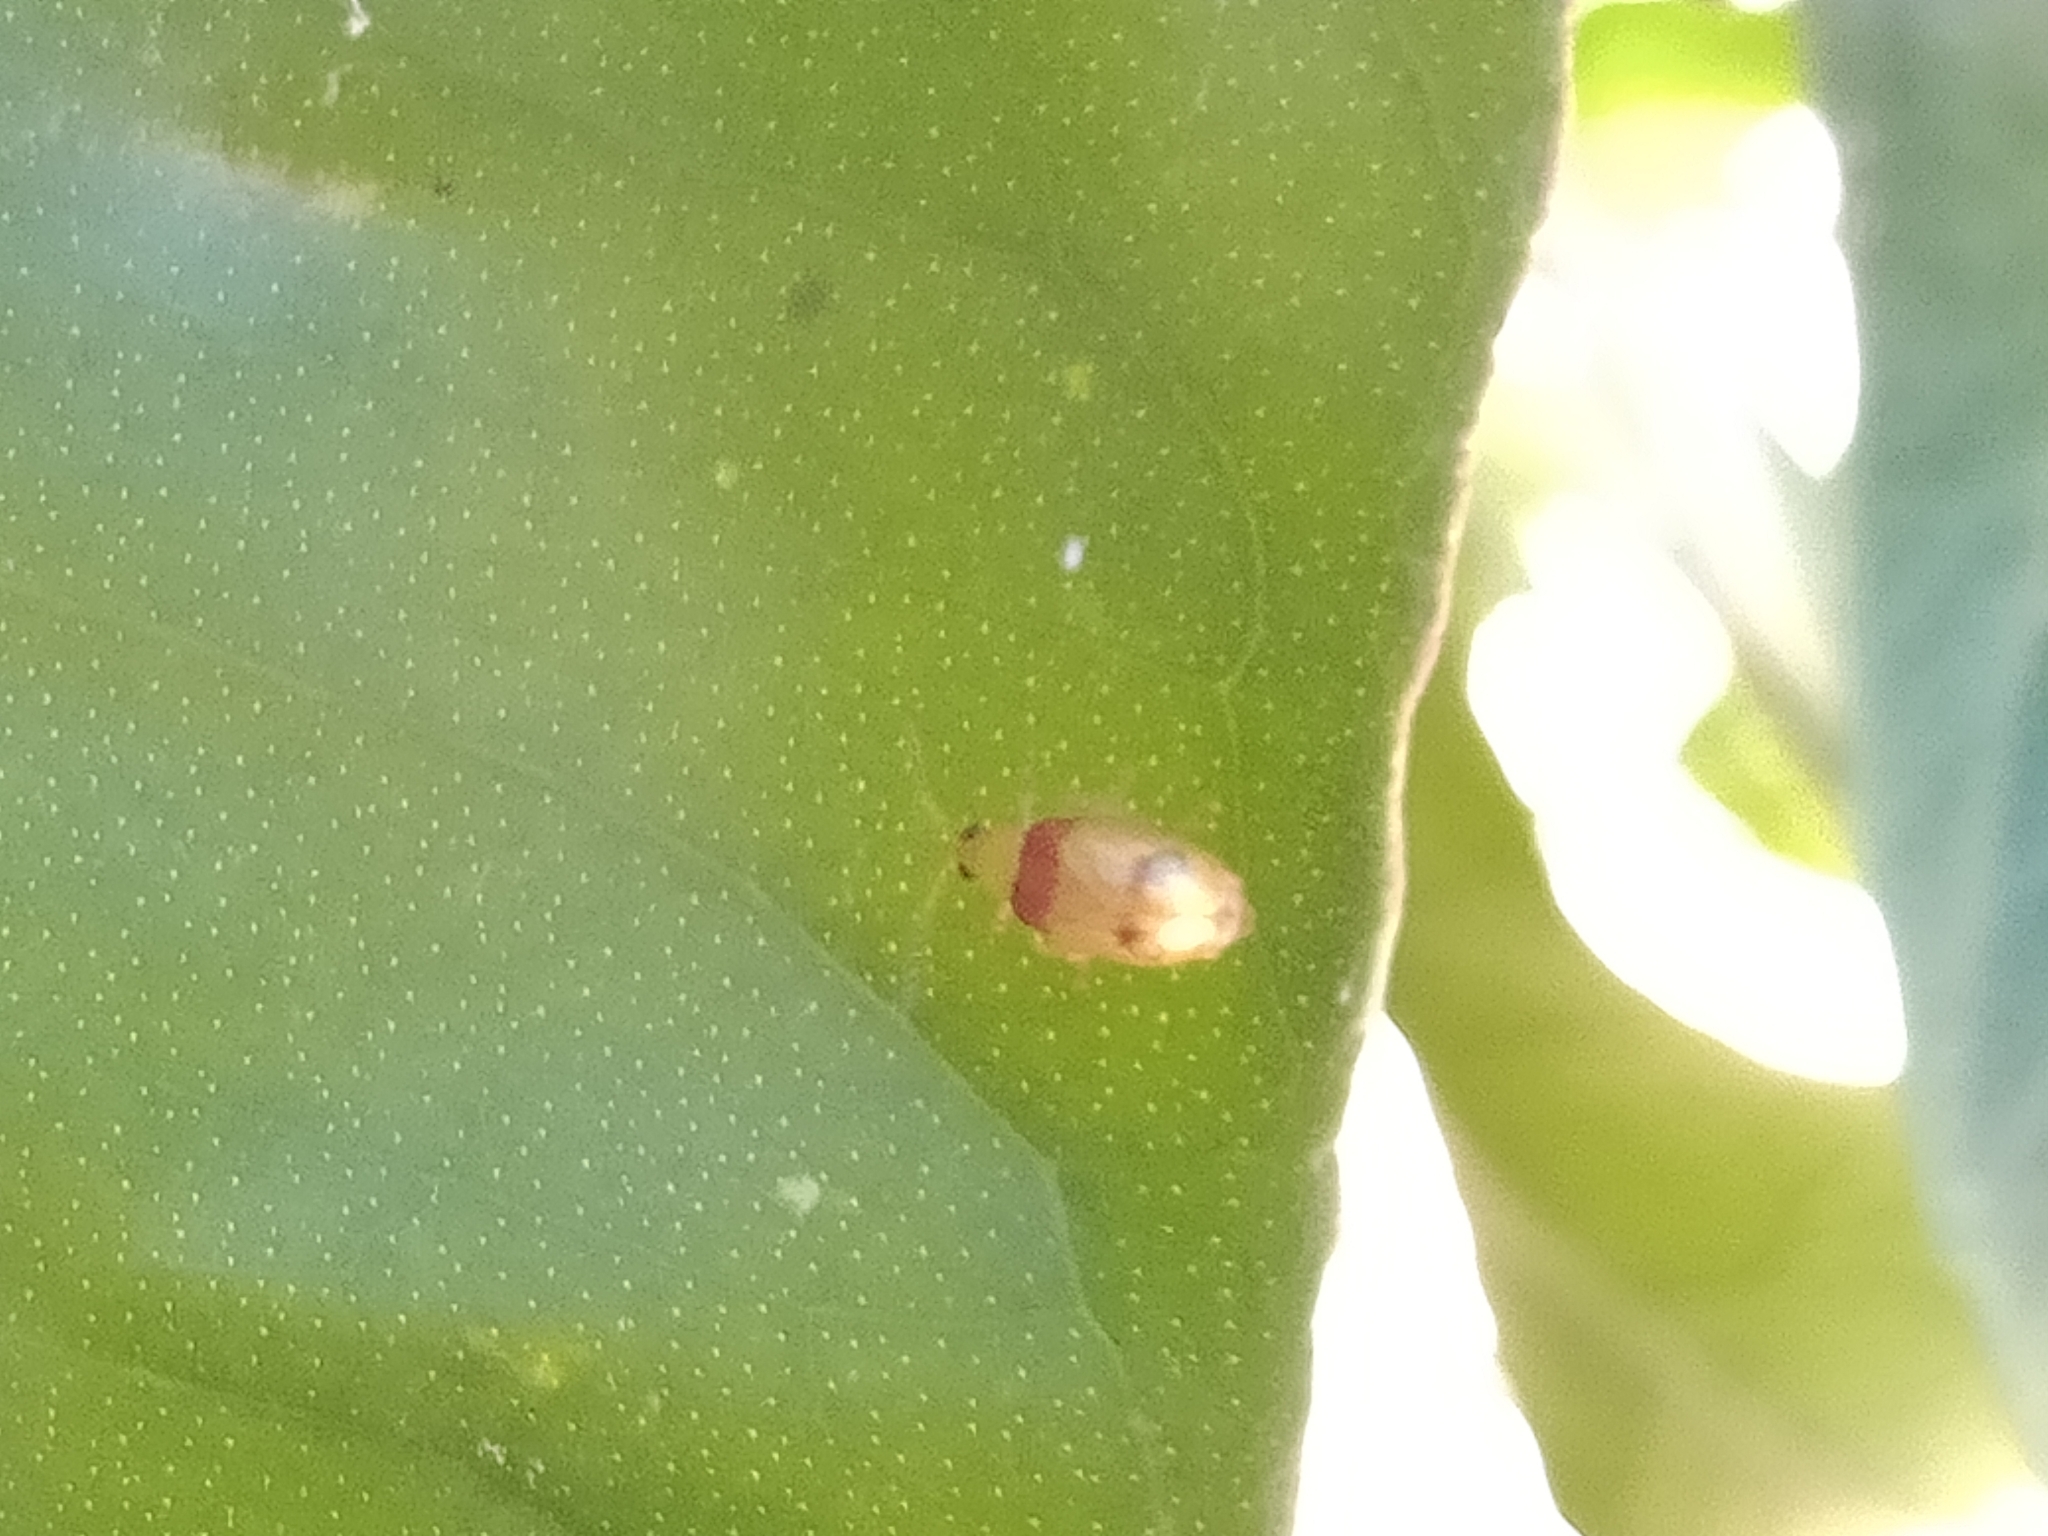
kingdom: Animalia
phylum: Arthropoda
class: Insecta
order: Coleoptera
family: Chrysomelidae
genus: Monolepta
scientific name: Monolepta
